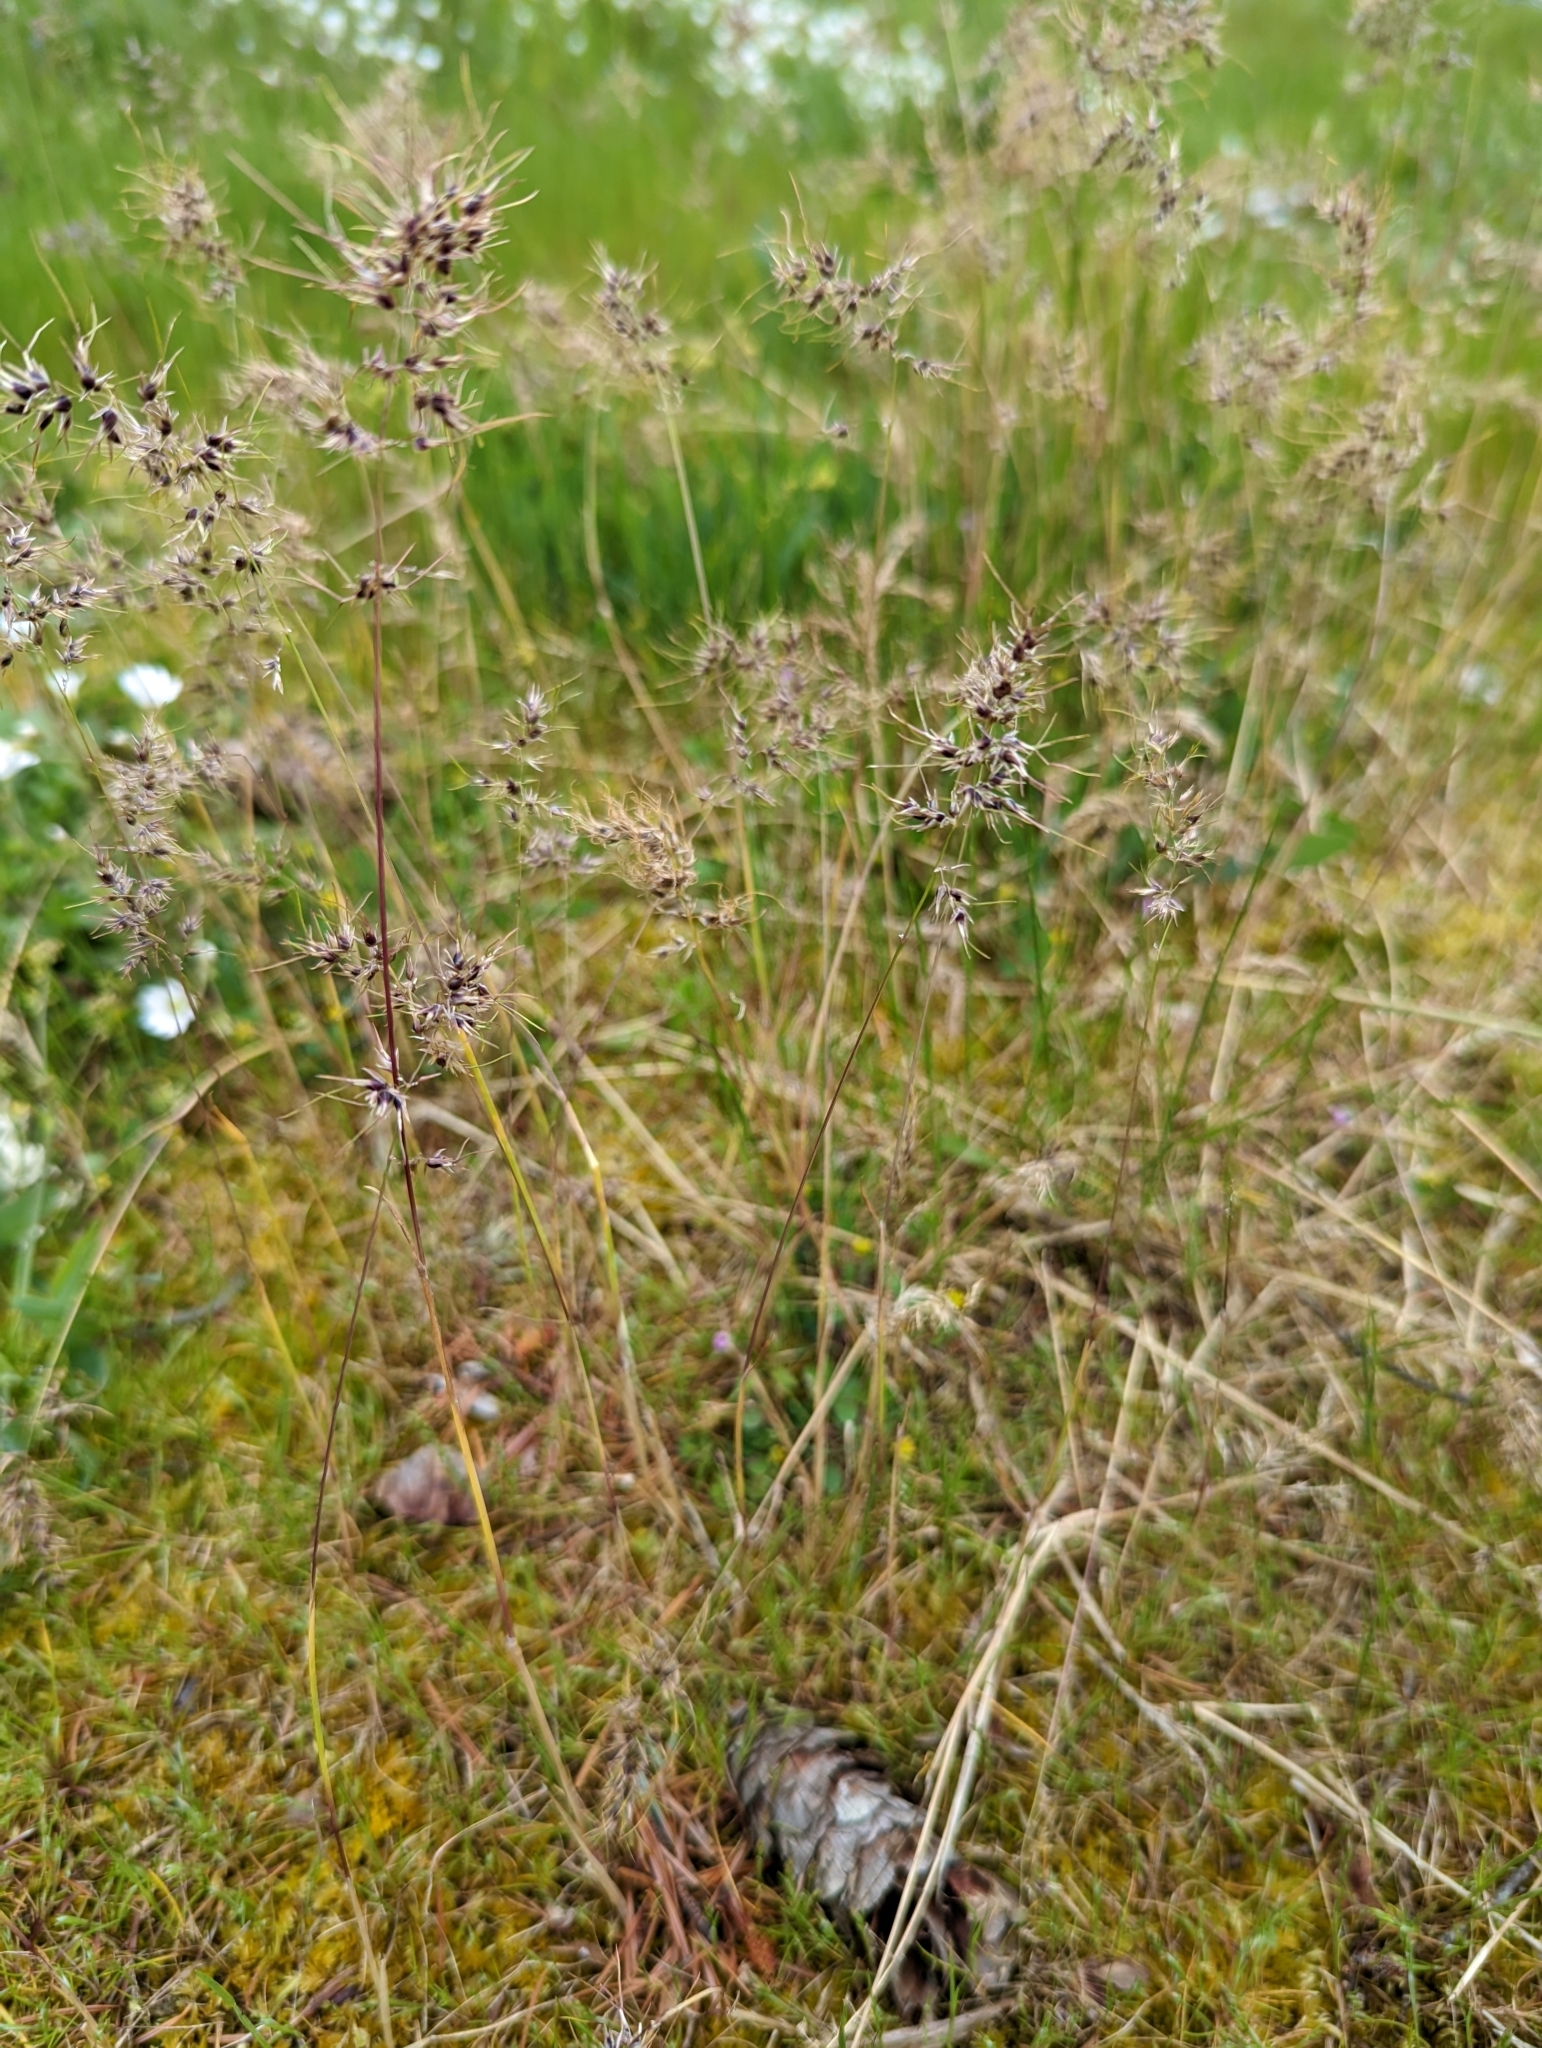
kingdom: Plantae
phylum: Tracheophyta
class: Liliopsida
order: Poales
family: Poaceae
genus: Poa
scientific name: Poa bulbosa
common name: Bulbous bluegrass
